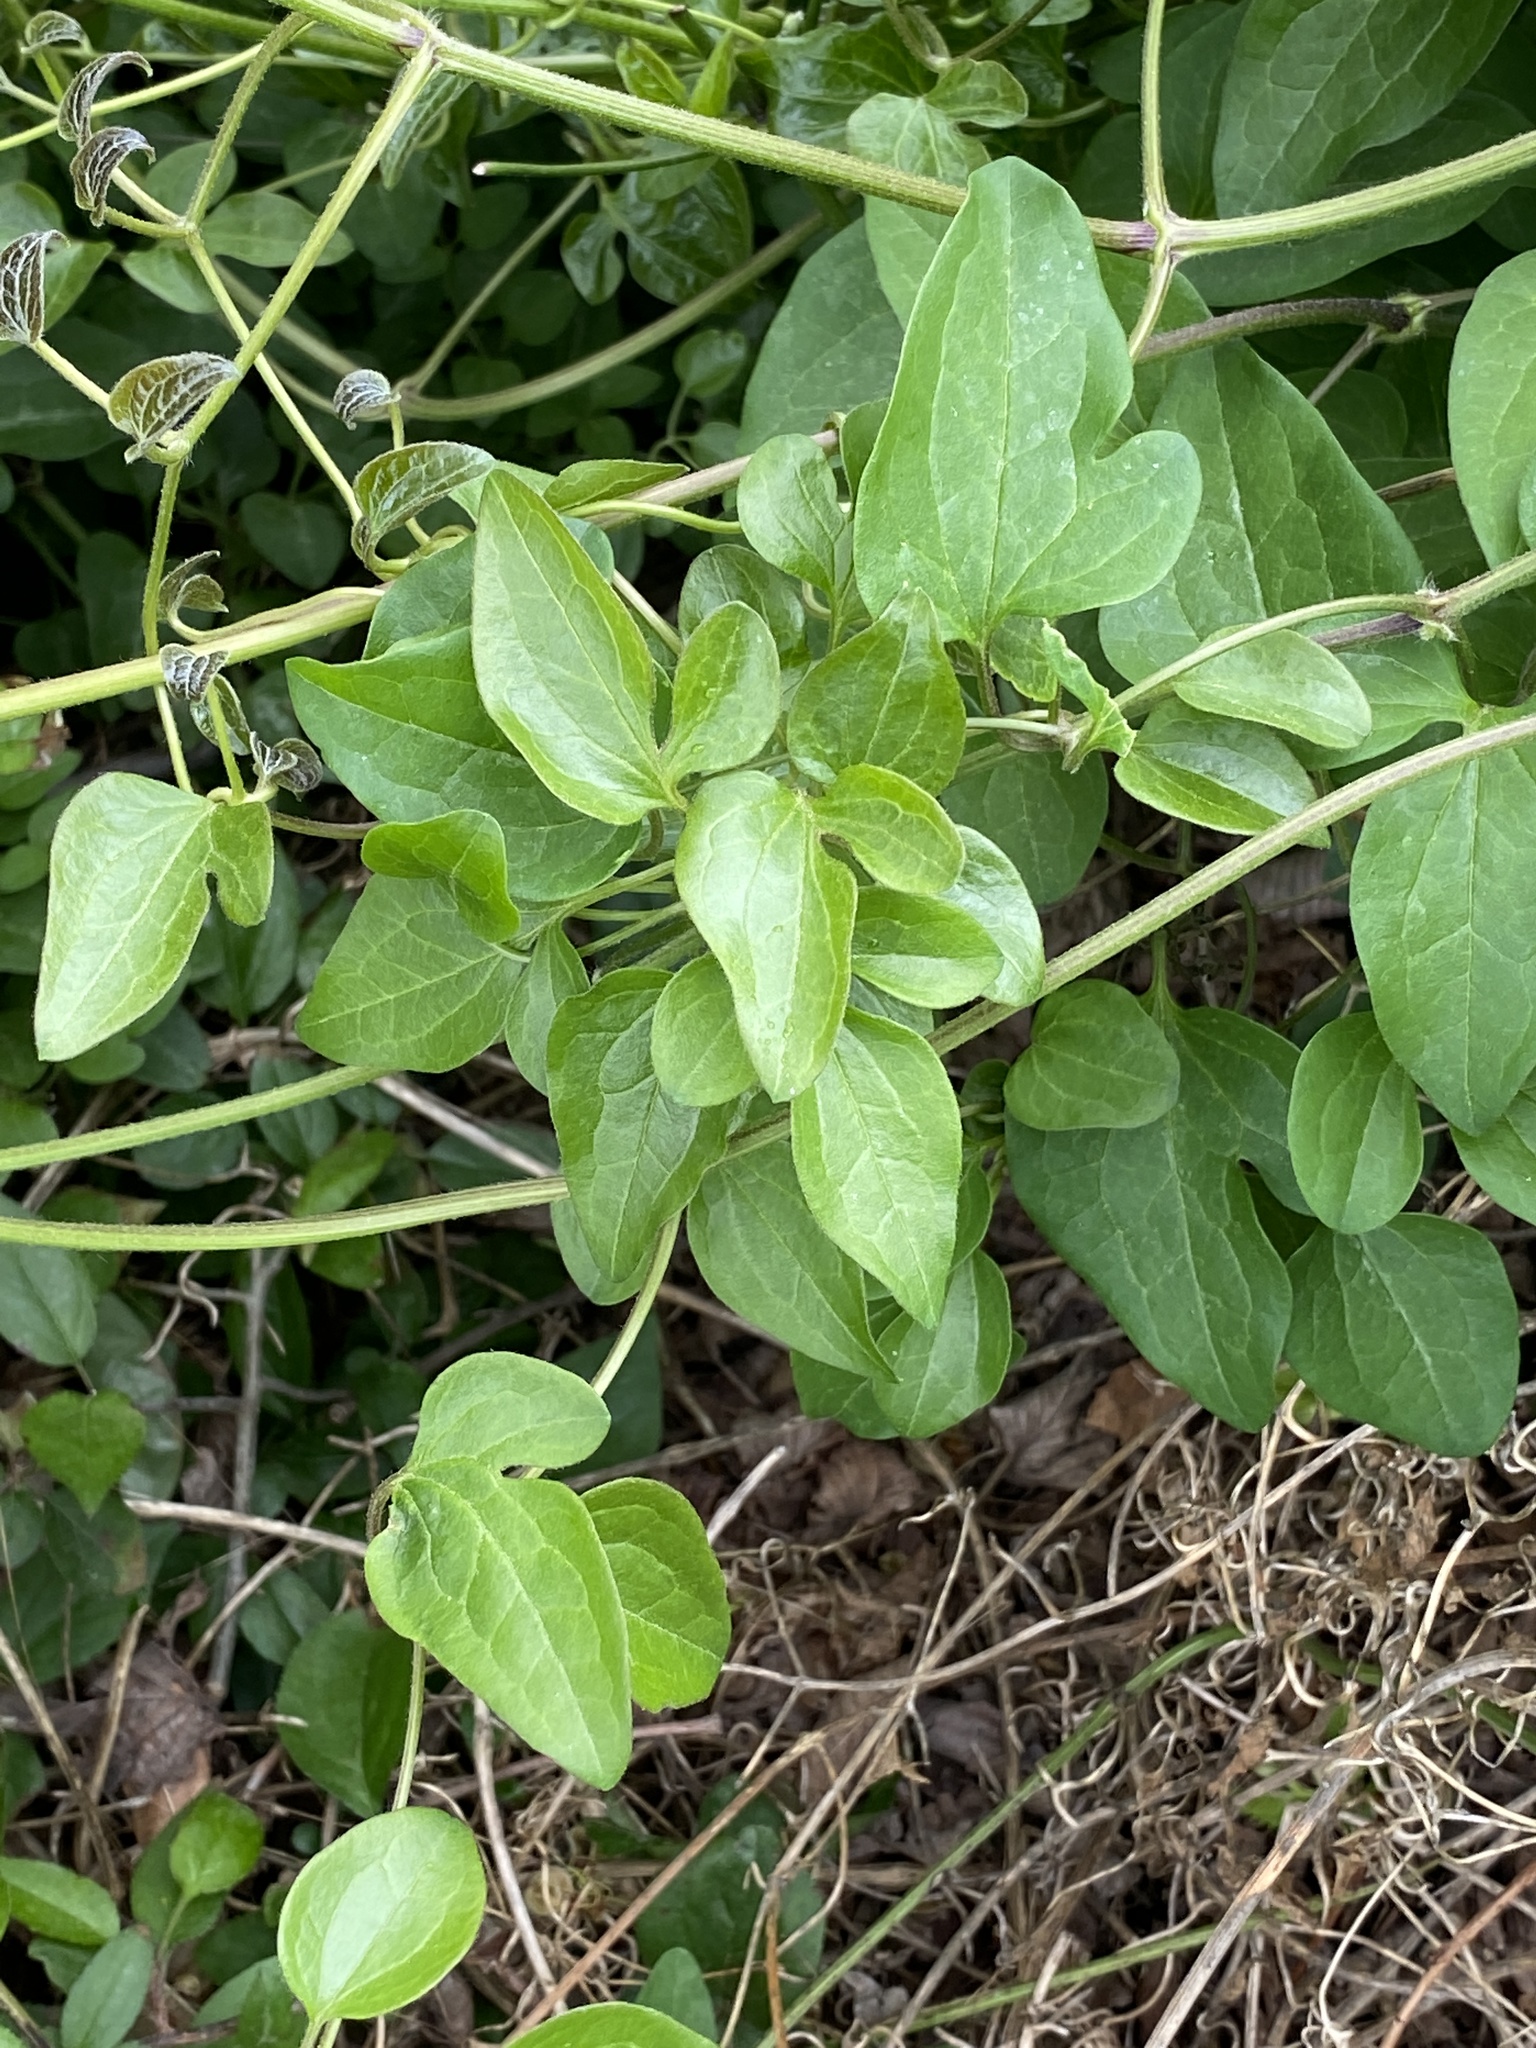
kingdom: Plantae
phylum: Tracheophyta
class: Magnoliopsida
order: Ranunculales
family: Ranunculaceae
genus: Clematis
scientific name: Clematis terniflora
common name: Sweet autumn clematis
